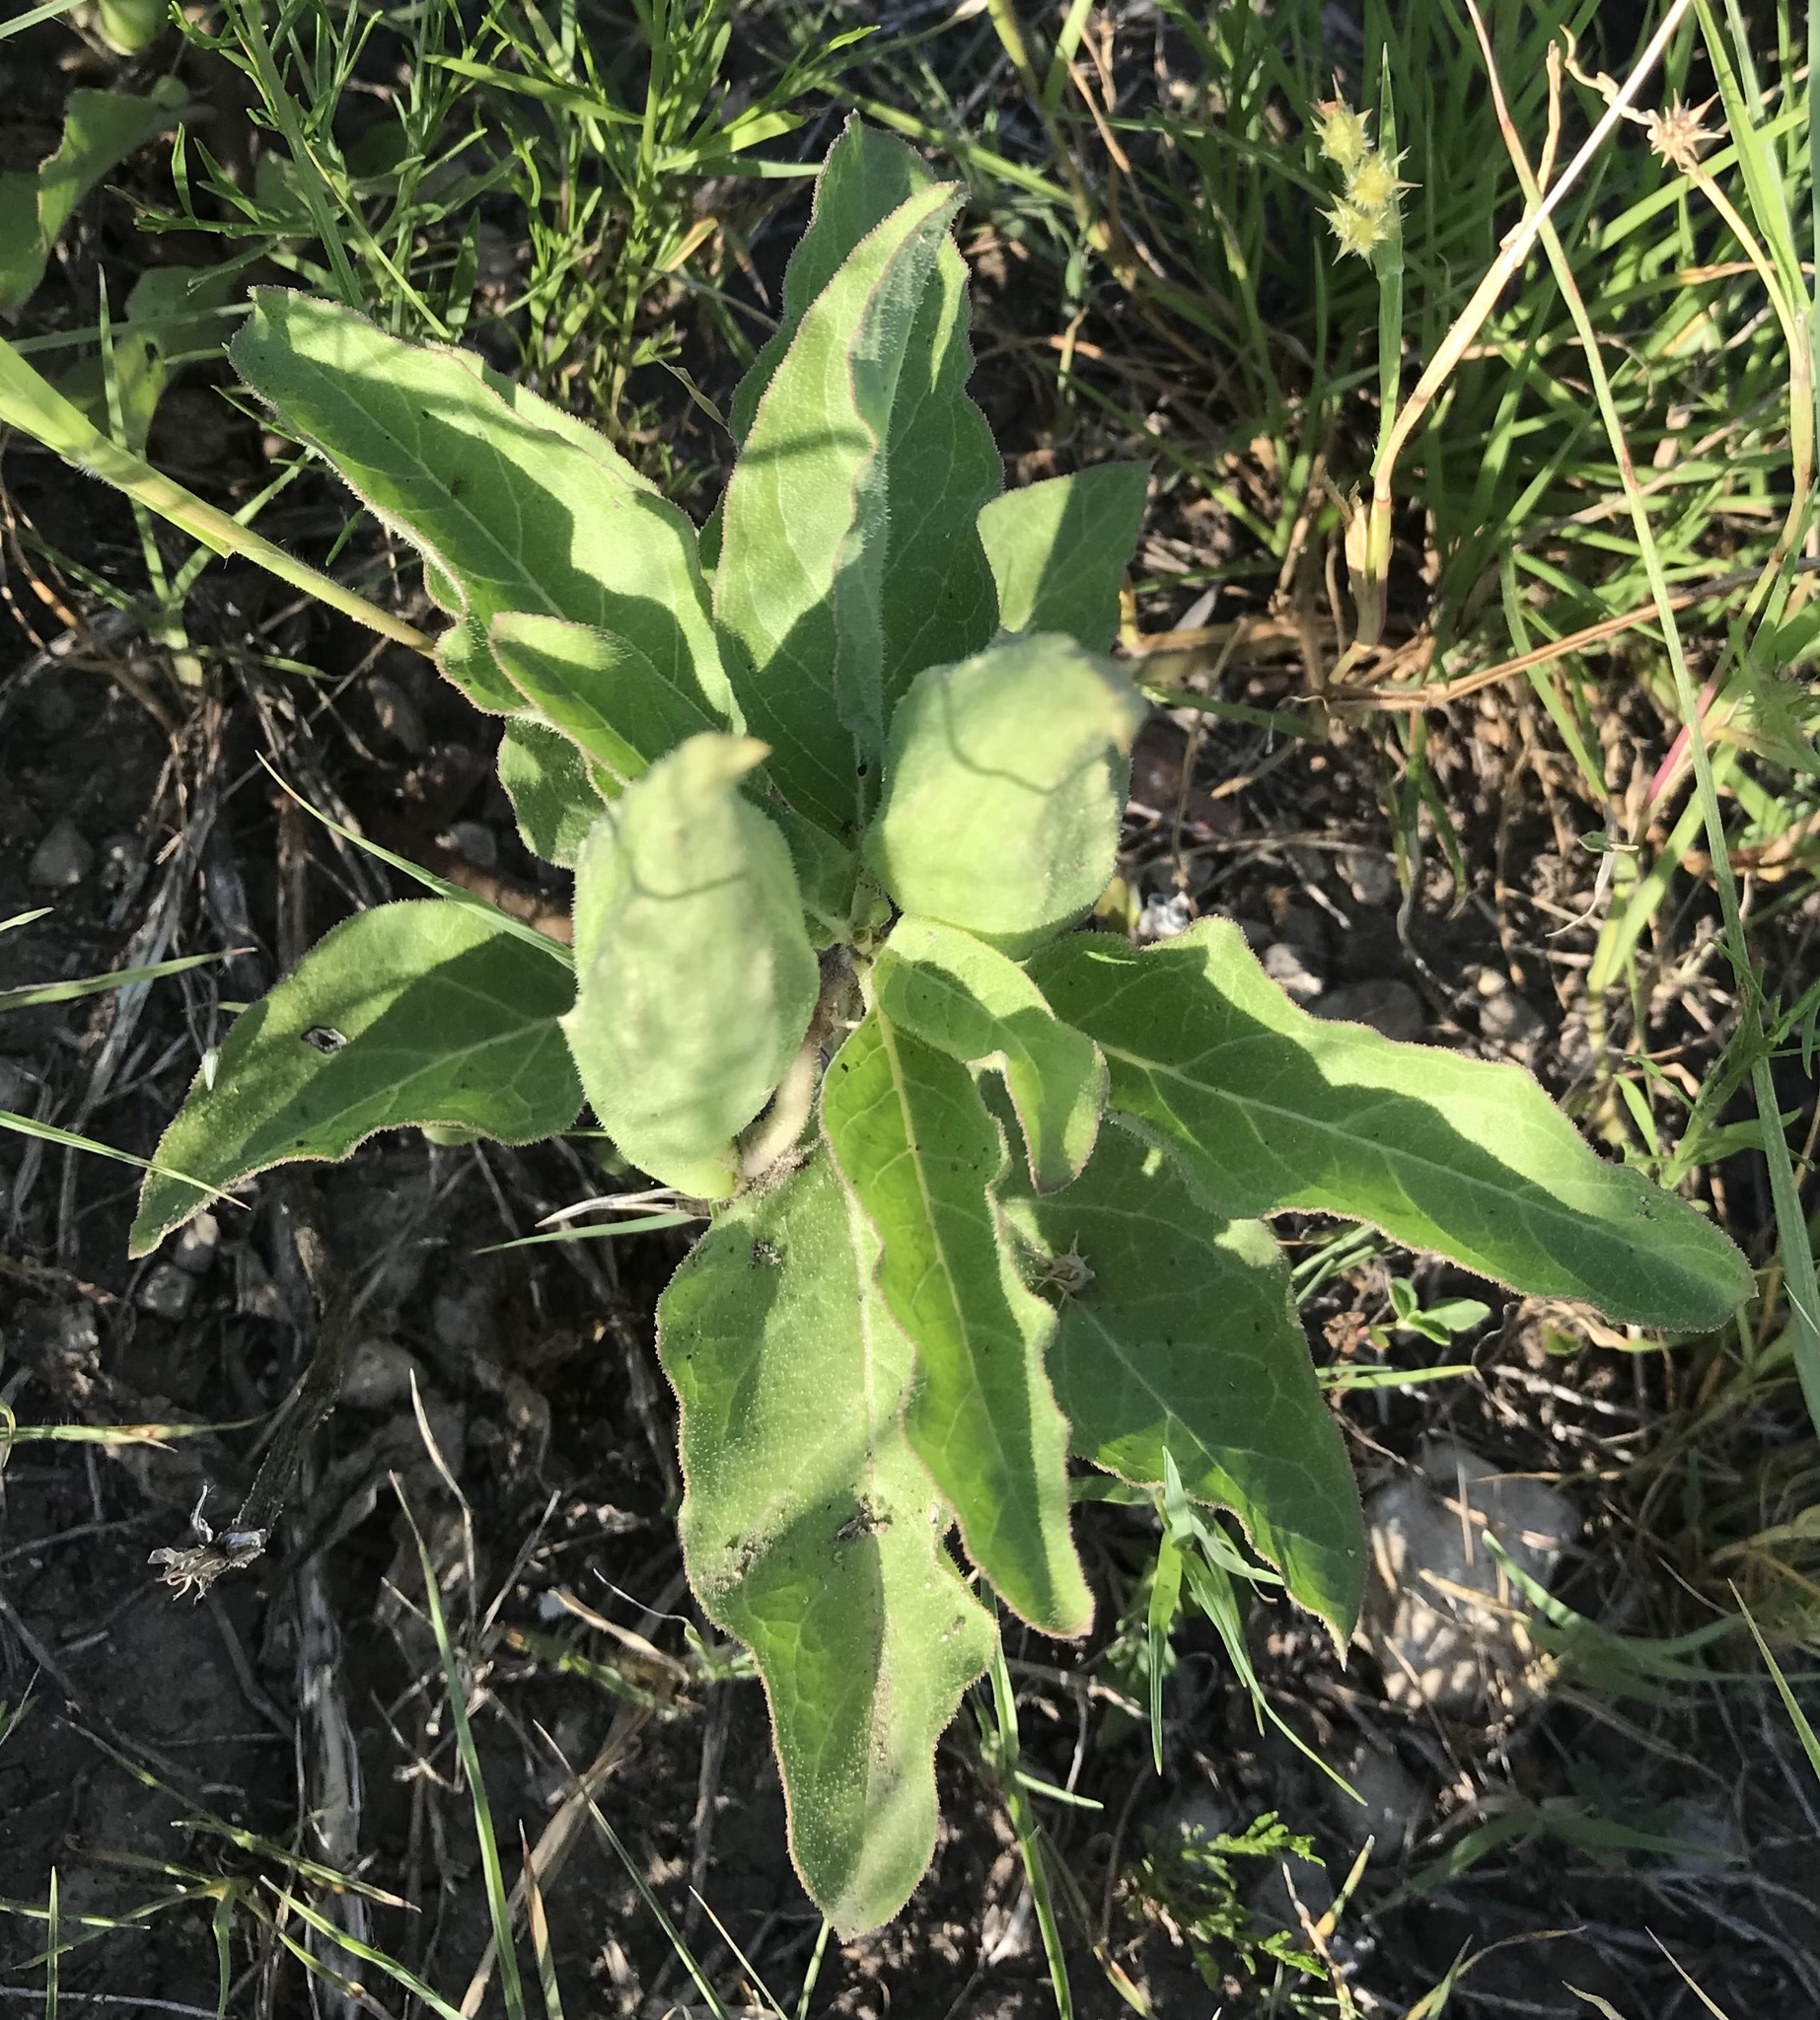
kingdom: Plantae
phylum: Tracheophyta
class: Magnoliopsida
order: Gentianales
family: Apocynaceae
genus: Asclepias
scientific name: Asclepias oenotheroides
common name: Zizotes milkweed
